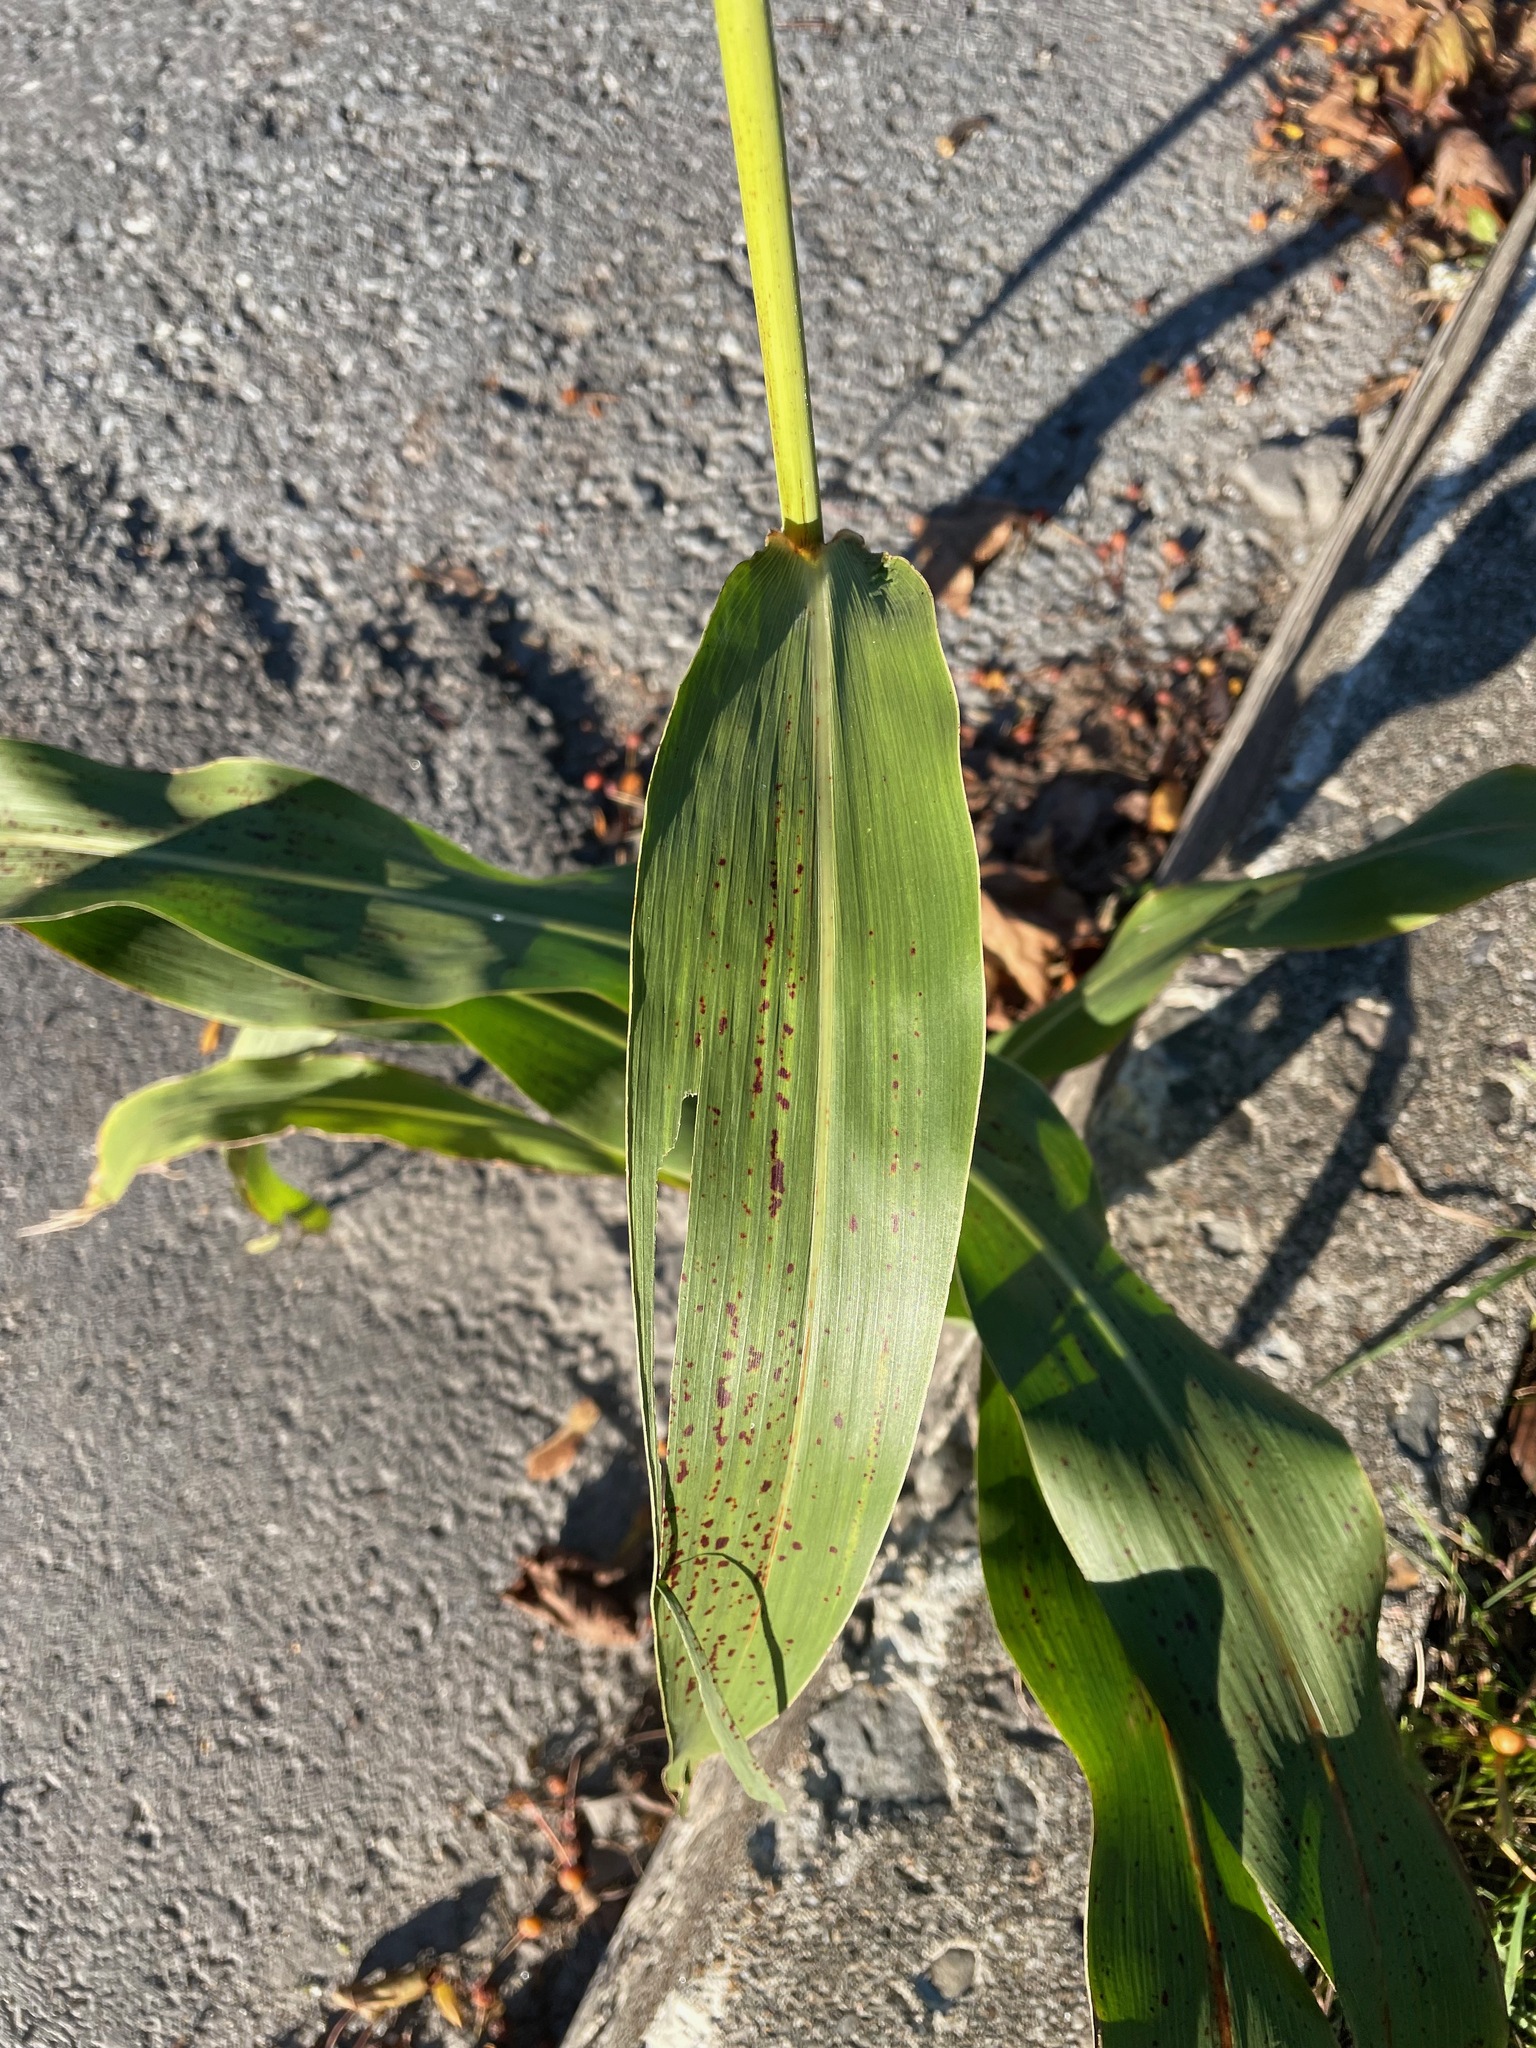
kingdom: Plantae
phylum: Tracheophyta
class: Liliopsida
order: Poales
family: Poaceae
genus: Sorghum
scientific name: Sorghum bicolor
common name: Sorghum
